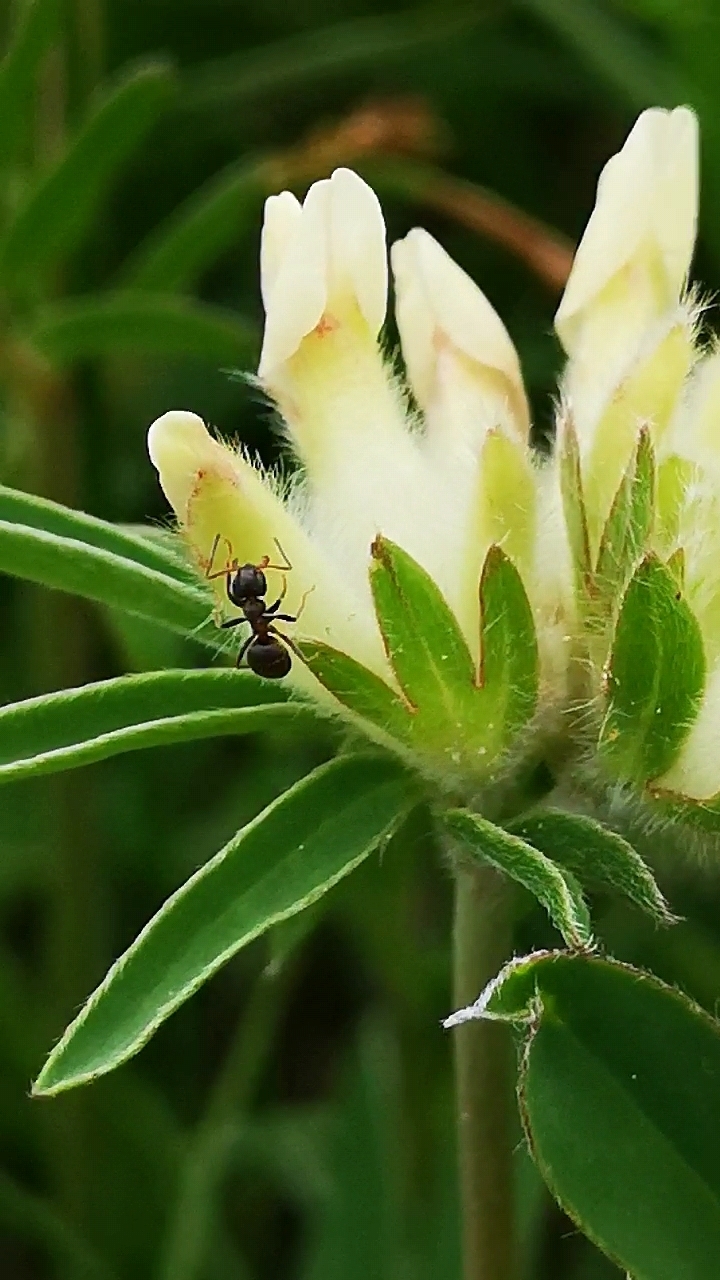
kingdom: Plantae
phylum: Tracheophyta
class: Magnoliopsida
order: Fabales
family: Fabaceae
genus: Anthyllis
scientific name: Anthyllis vulneraria
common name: Kidney vetch
